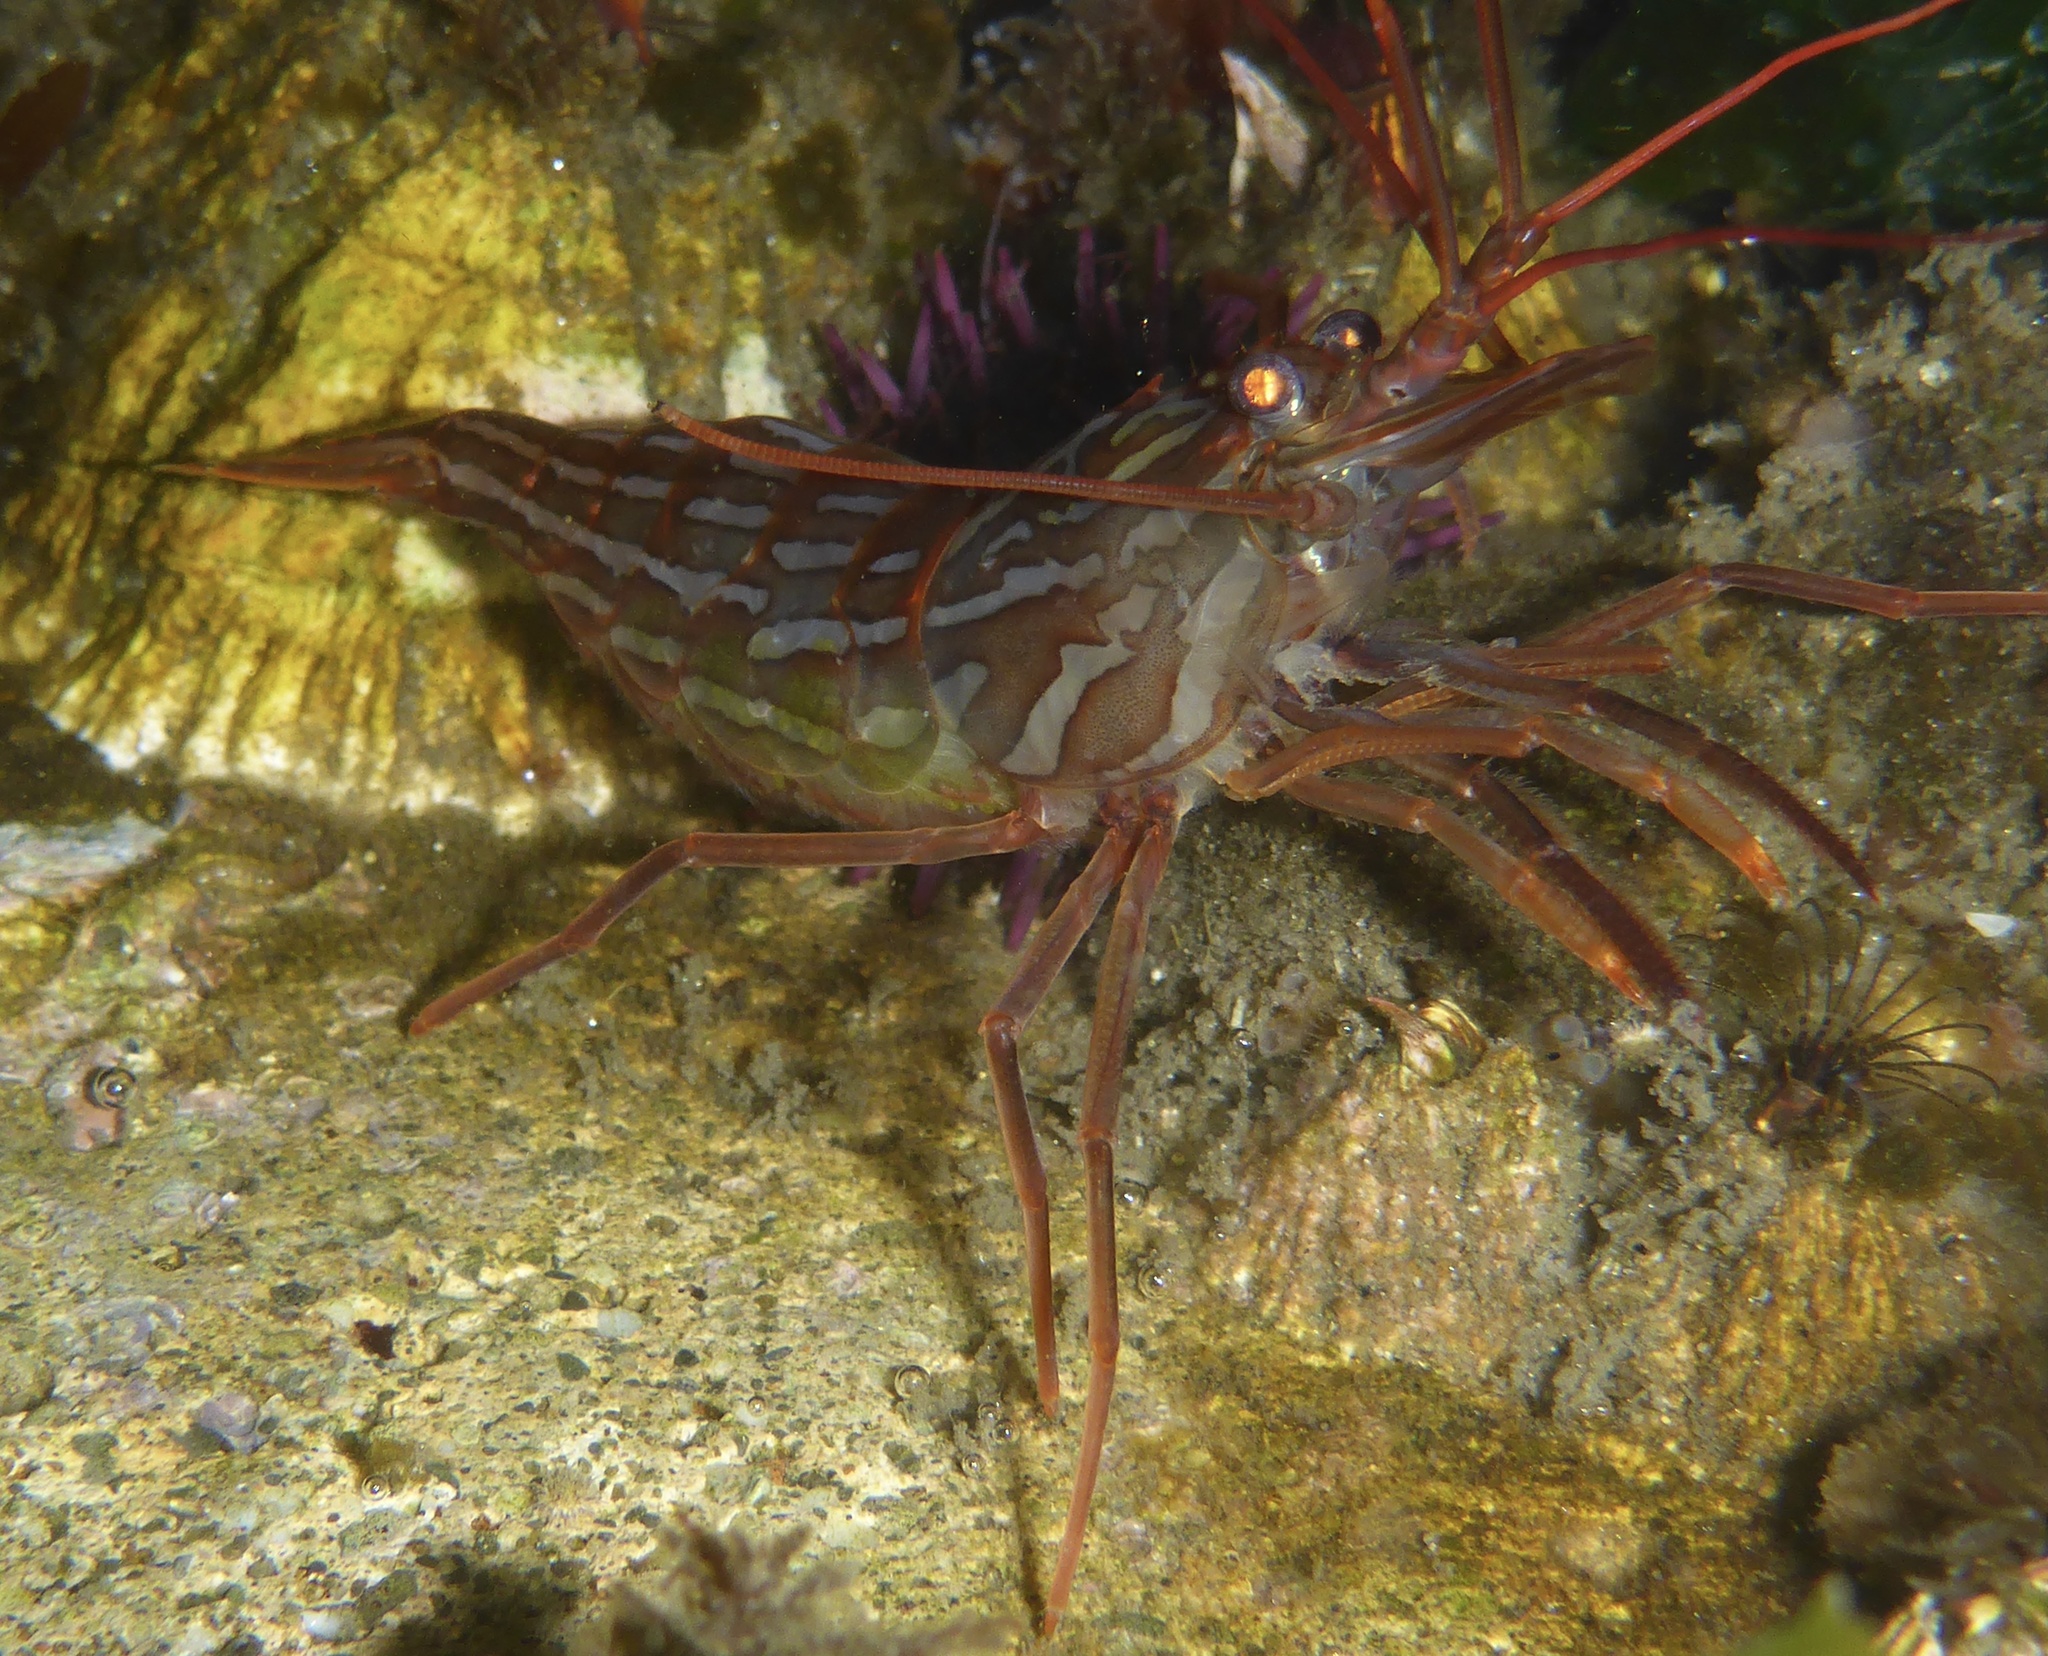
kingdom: Animalia
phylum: Arthropoda
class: Malacostraca
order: Decapoda
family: Lysmatidae
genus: Lysmata
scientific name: Lysmata californica
